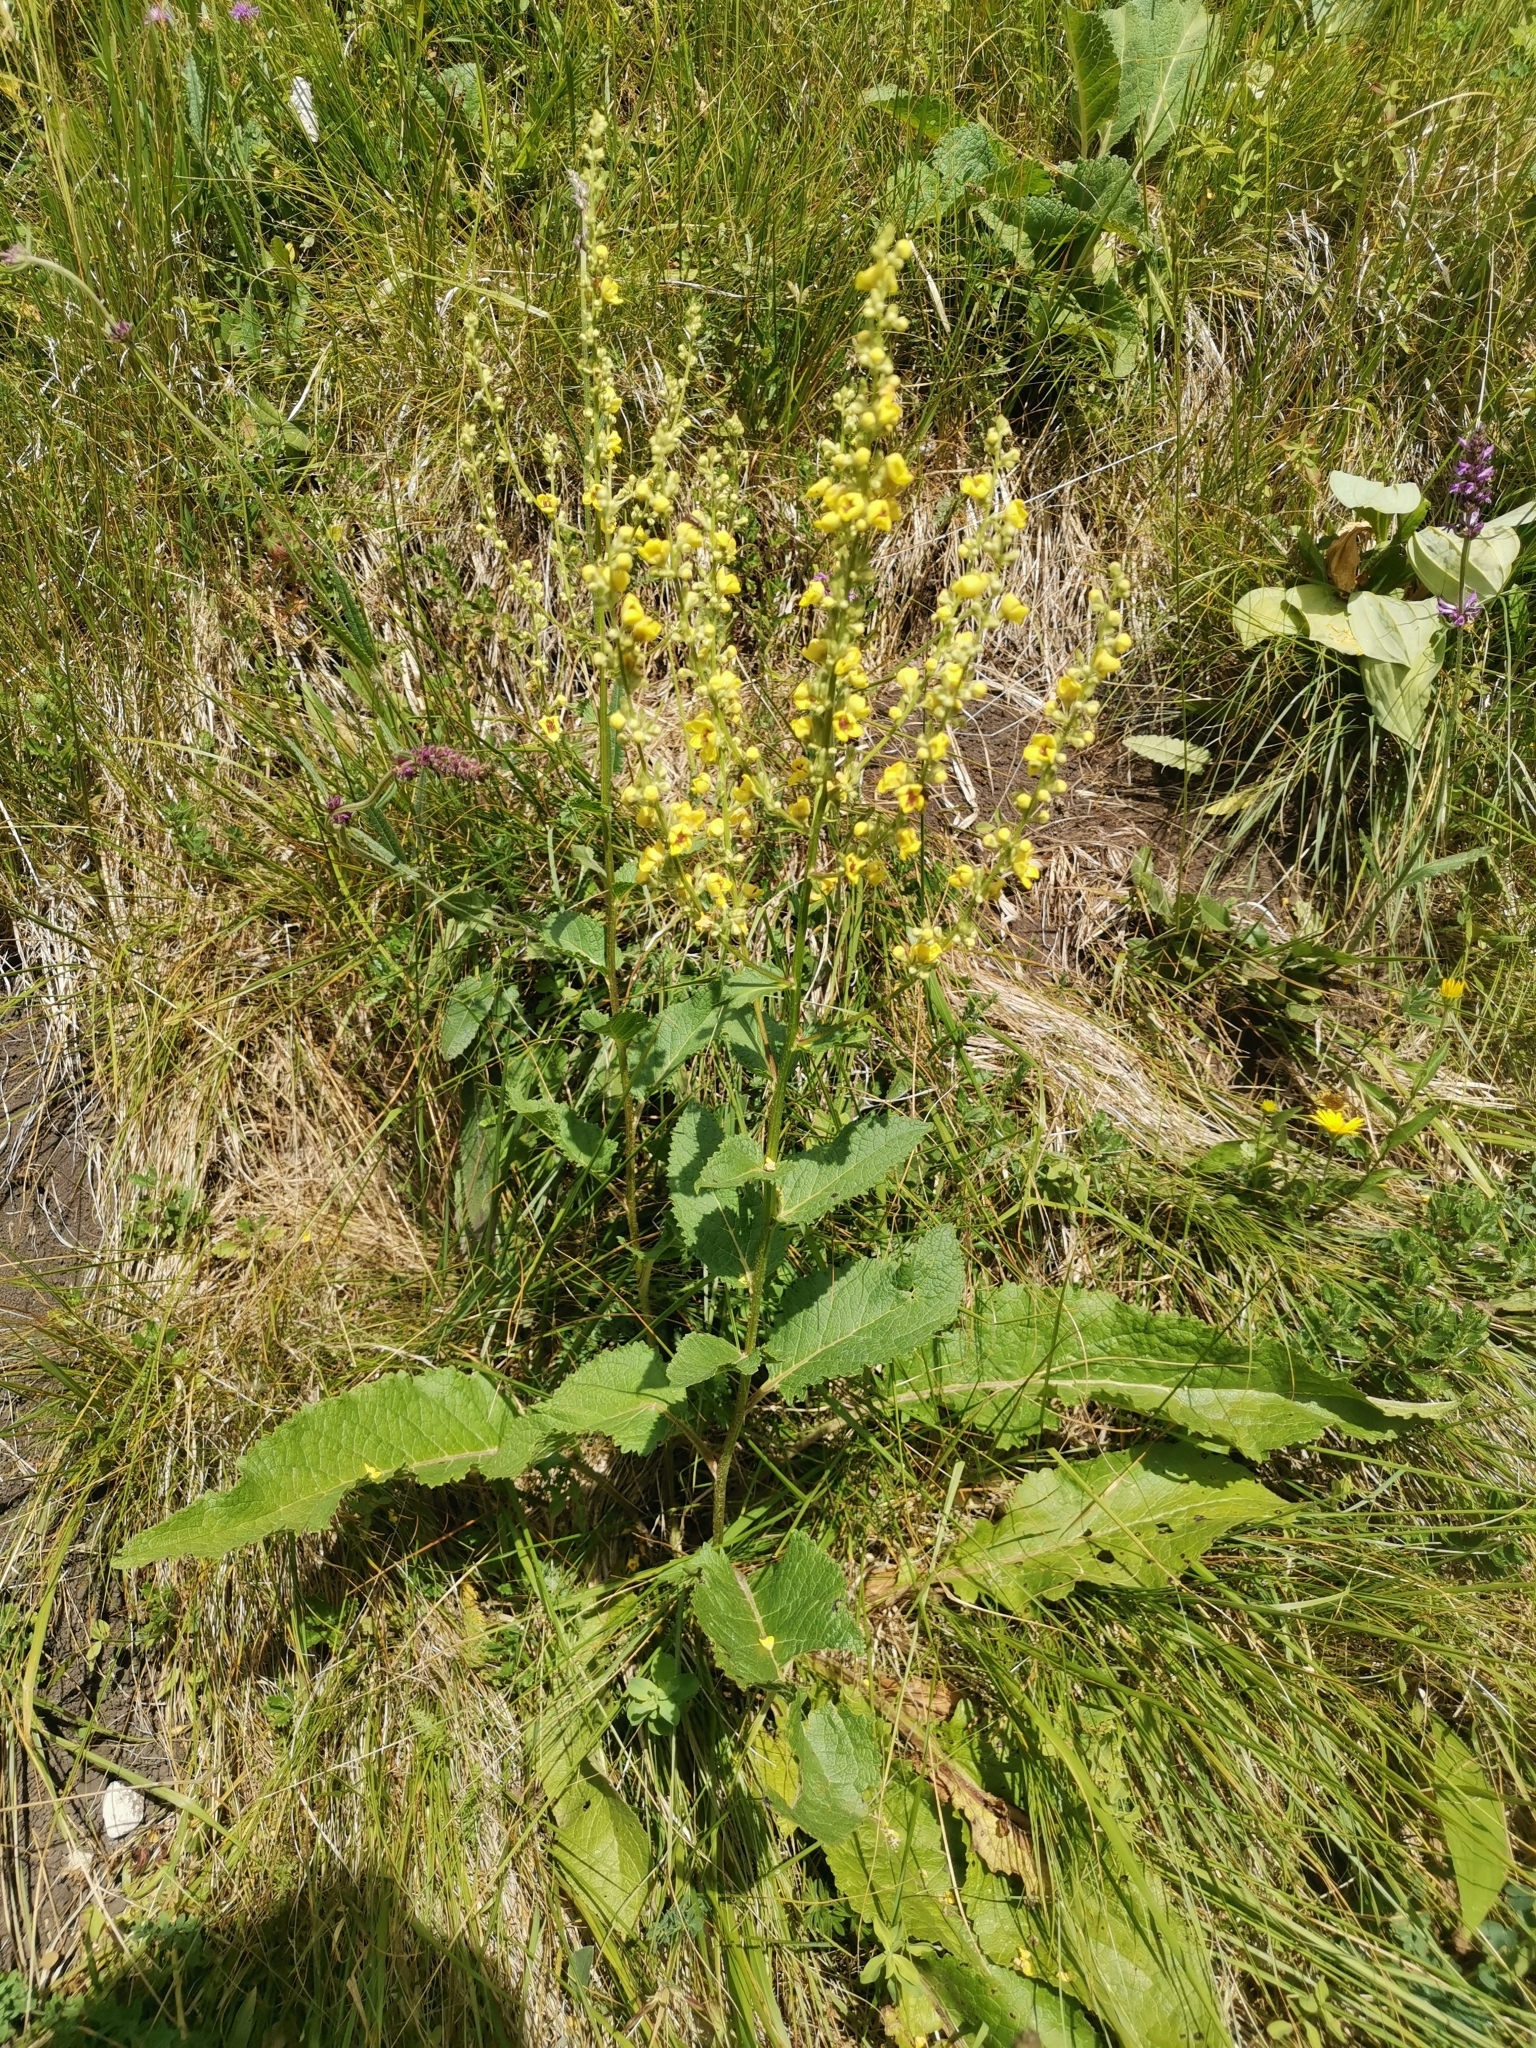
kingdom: Plantae
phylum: Tracheophyta
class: Magnoliopsida
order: Lamiales
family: Scrophulariaceae
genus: Verbascum
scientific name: Verbascum chaixii
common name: Nettle-leaved mullein
